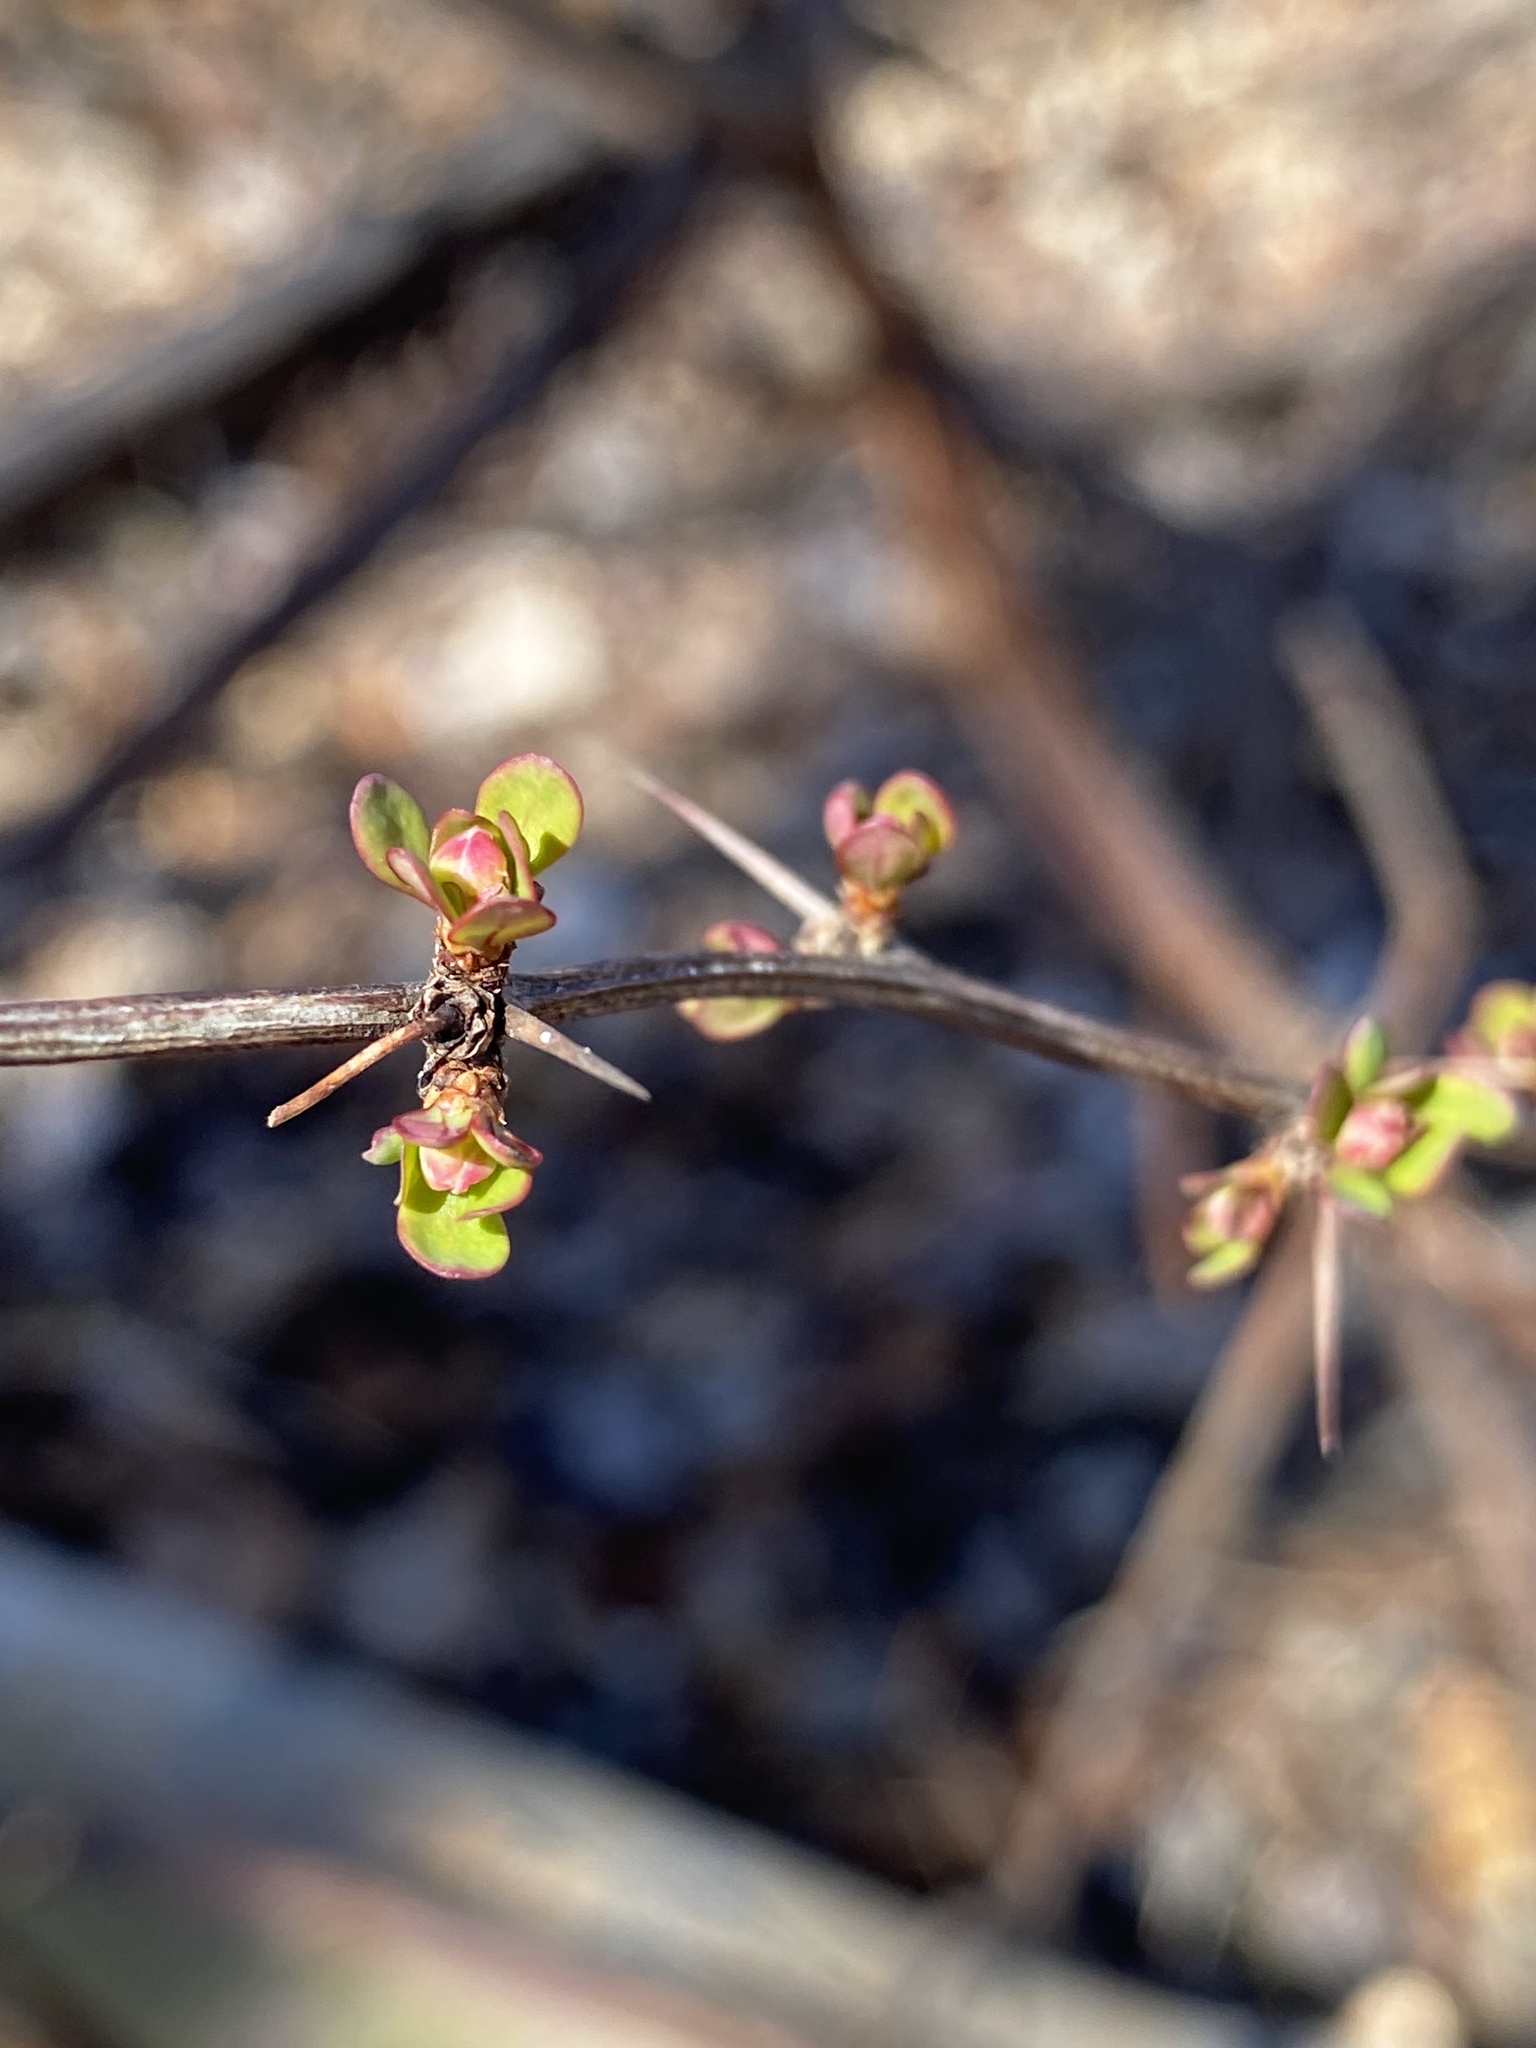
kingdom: Plantae
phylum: Tracheophyta
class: Magnoliopsida
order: Ranunculales
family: Berberidaceae
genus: Berberis
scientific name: Berberis thunbergii
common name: Japanese barberry
